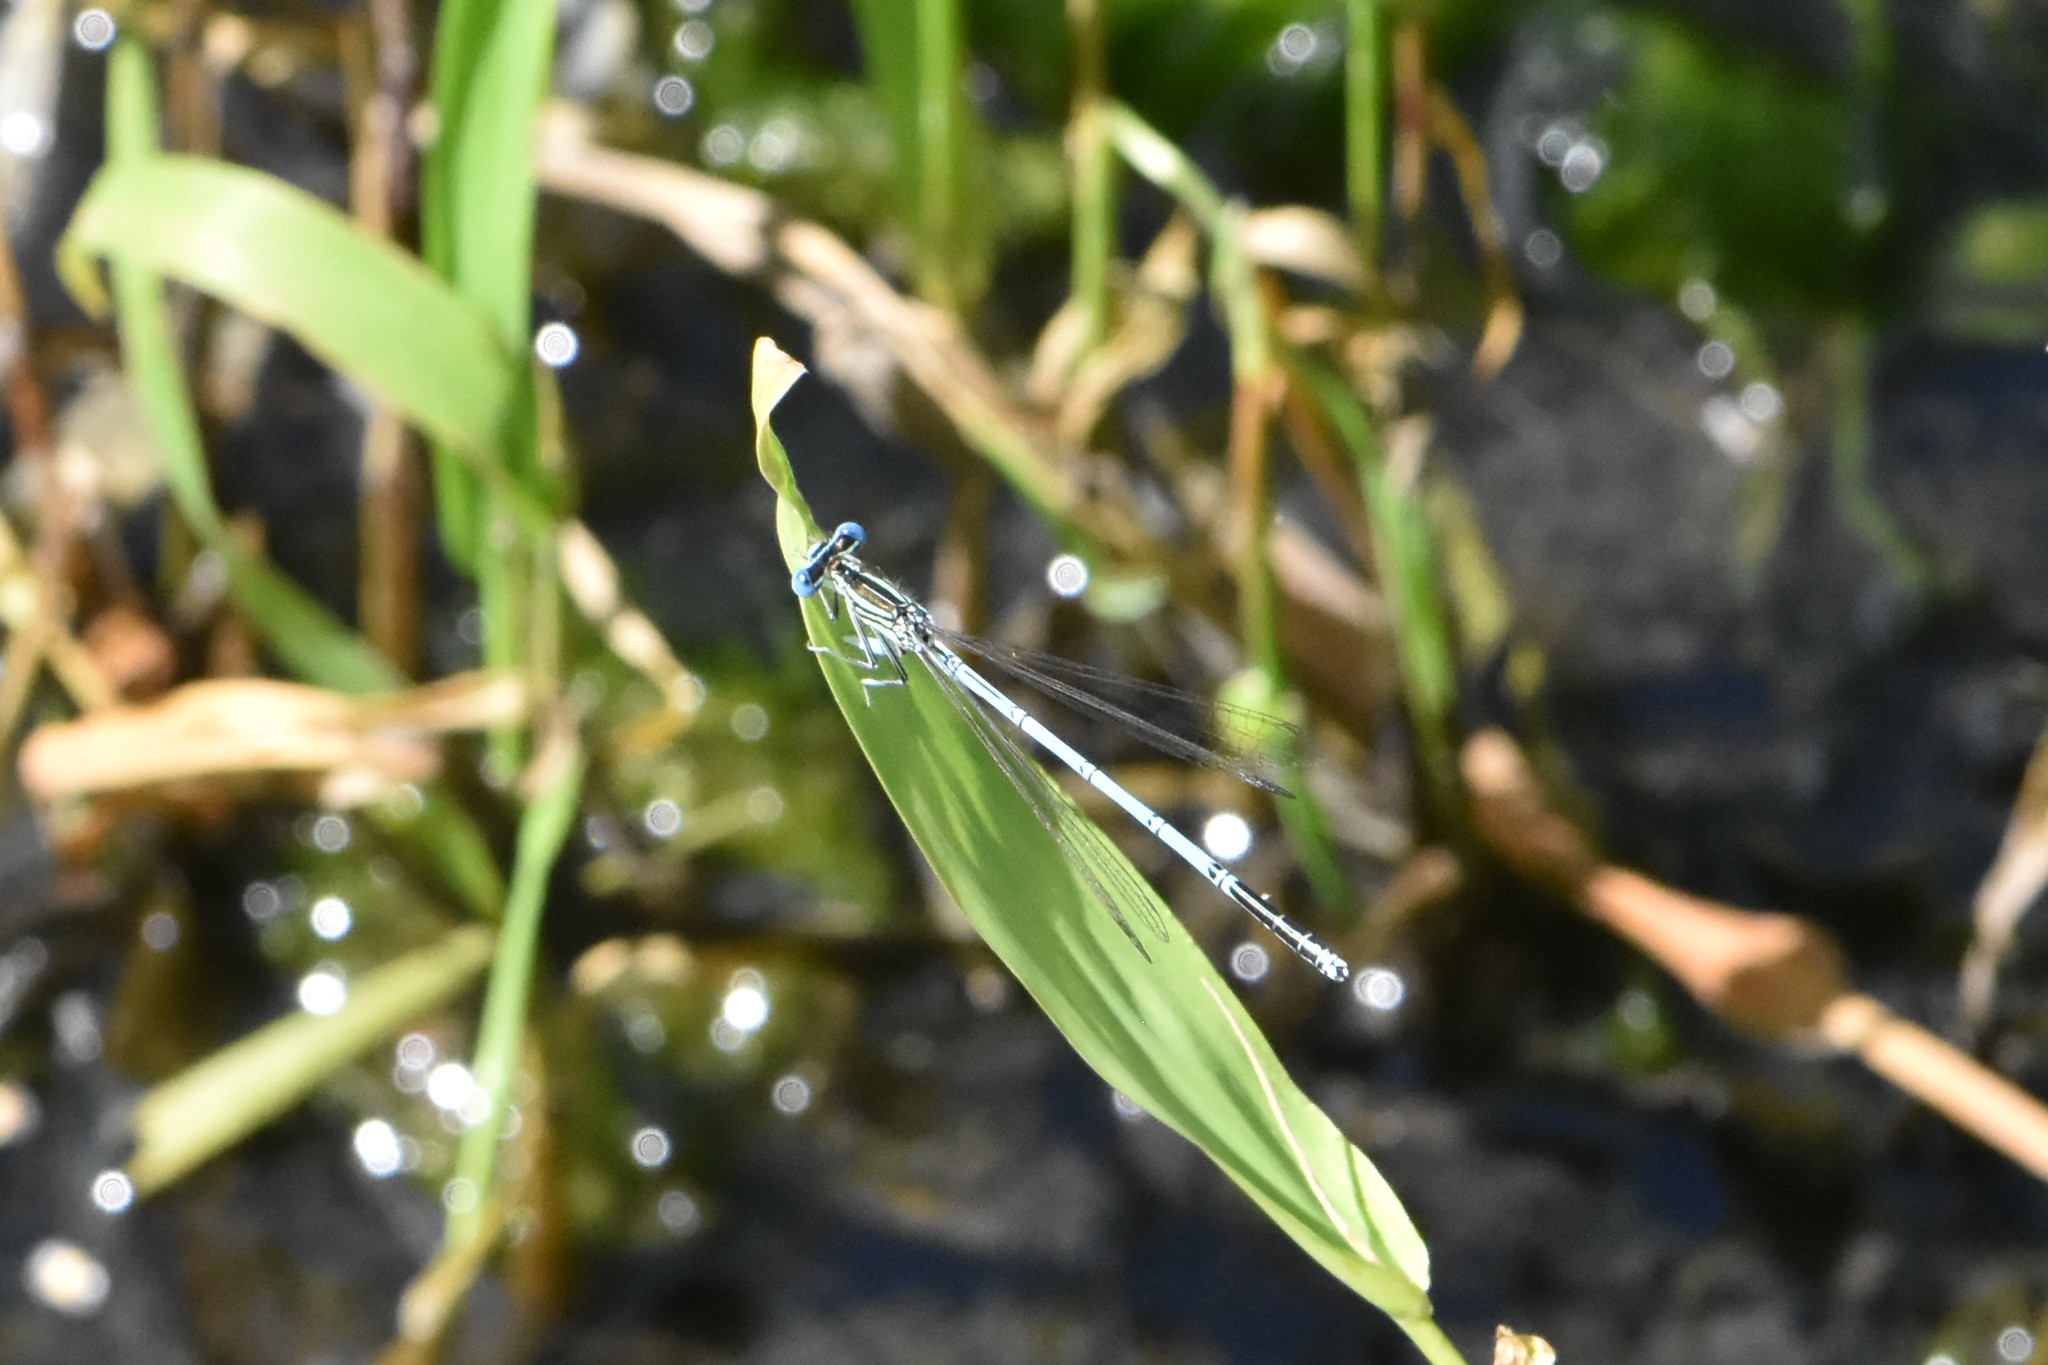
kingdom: Animalia
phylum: Arthropoda
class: Insecta
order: Odonata
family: Platycnemididae
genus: Platycnemis
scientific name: Platycnemis pennipes
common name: White-legged damselfly
